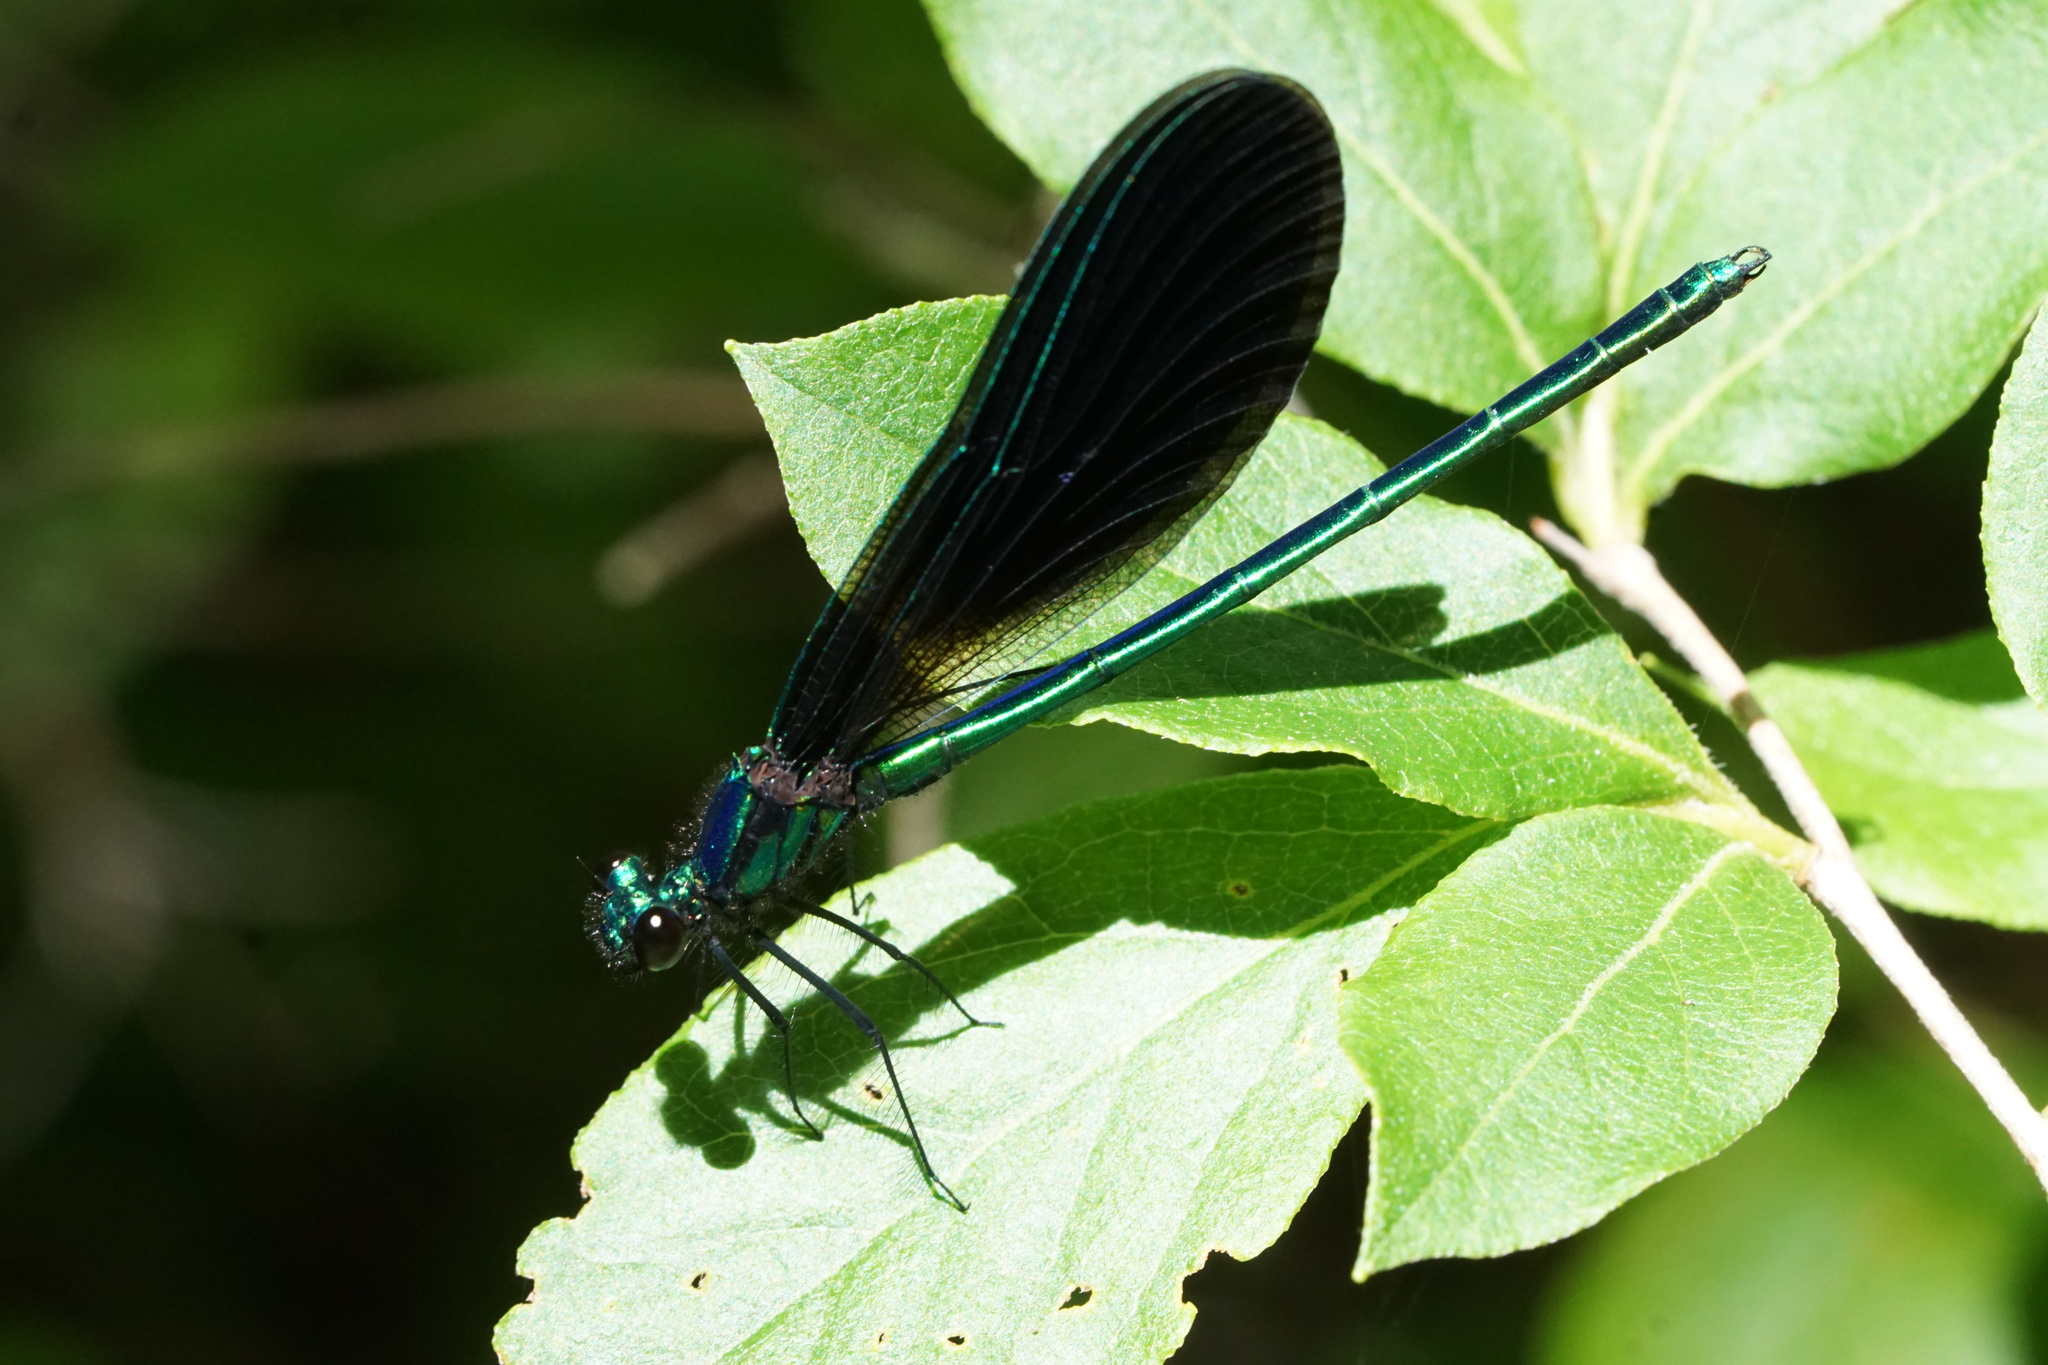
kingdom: Animalia
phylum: Arthropoda
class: Insecta
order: Odonata
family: Calopterygidae
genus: Calopteryx
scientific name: Calopteryx maculata
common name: Ebony jewelwing
